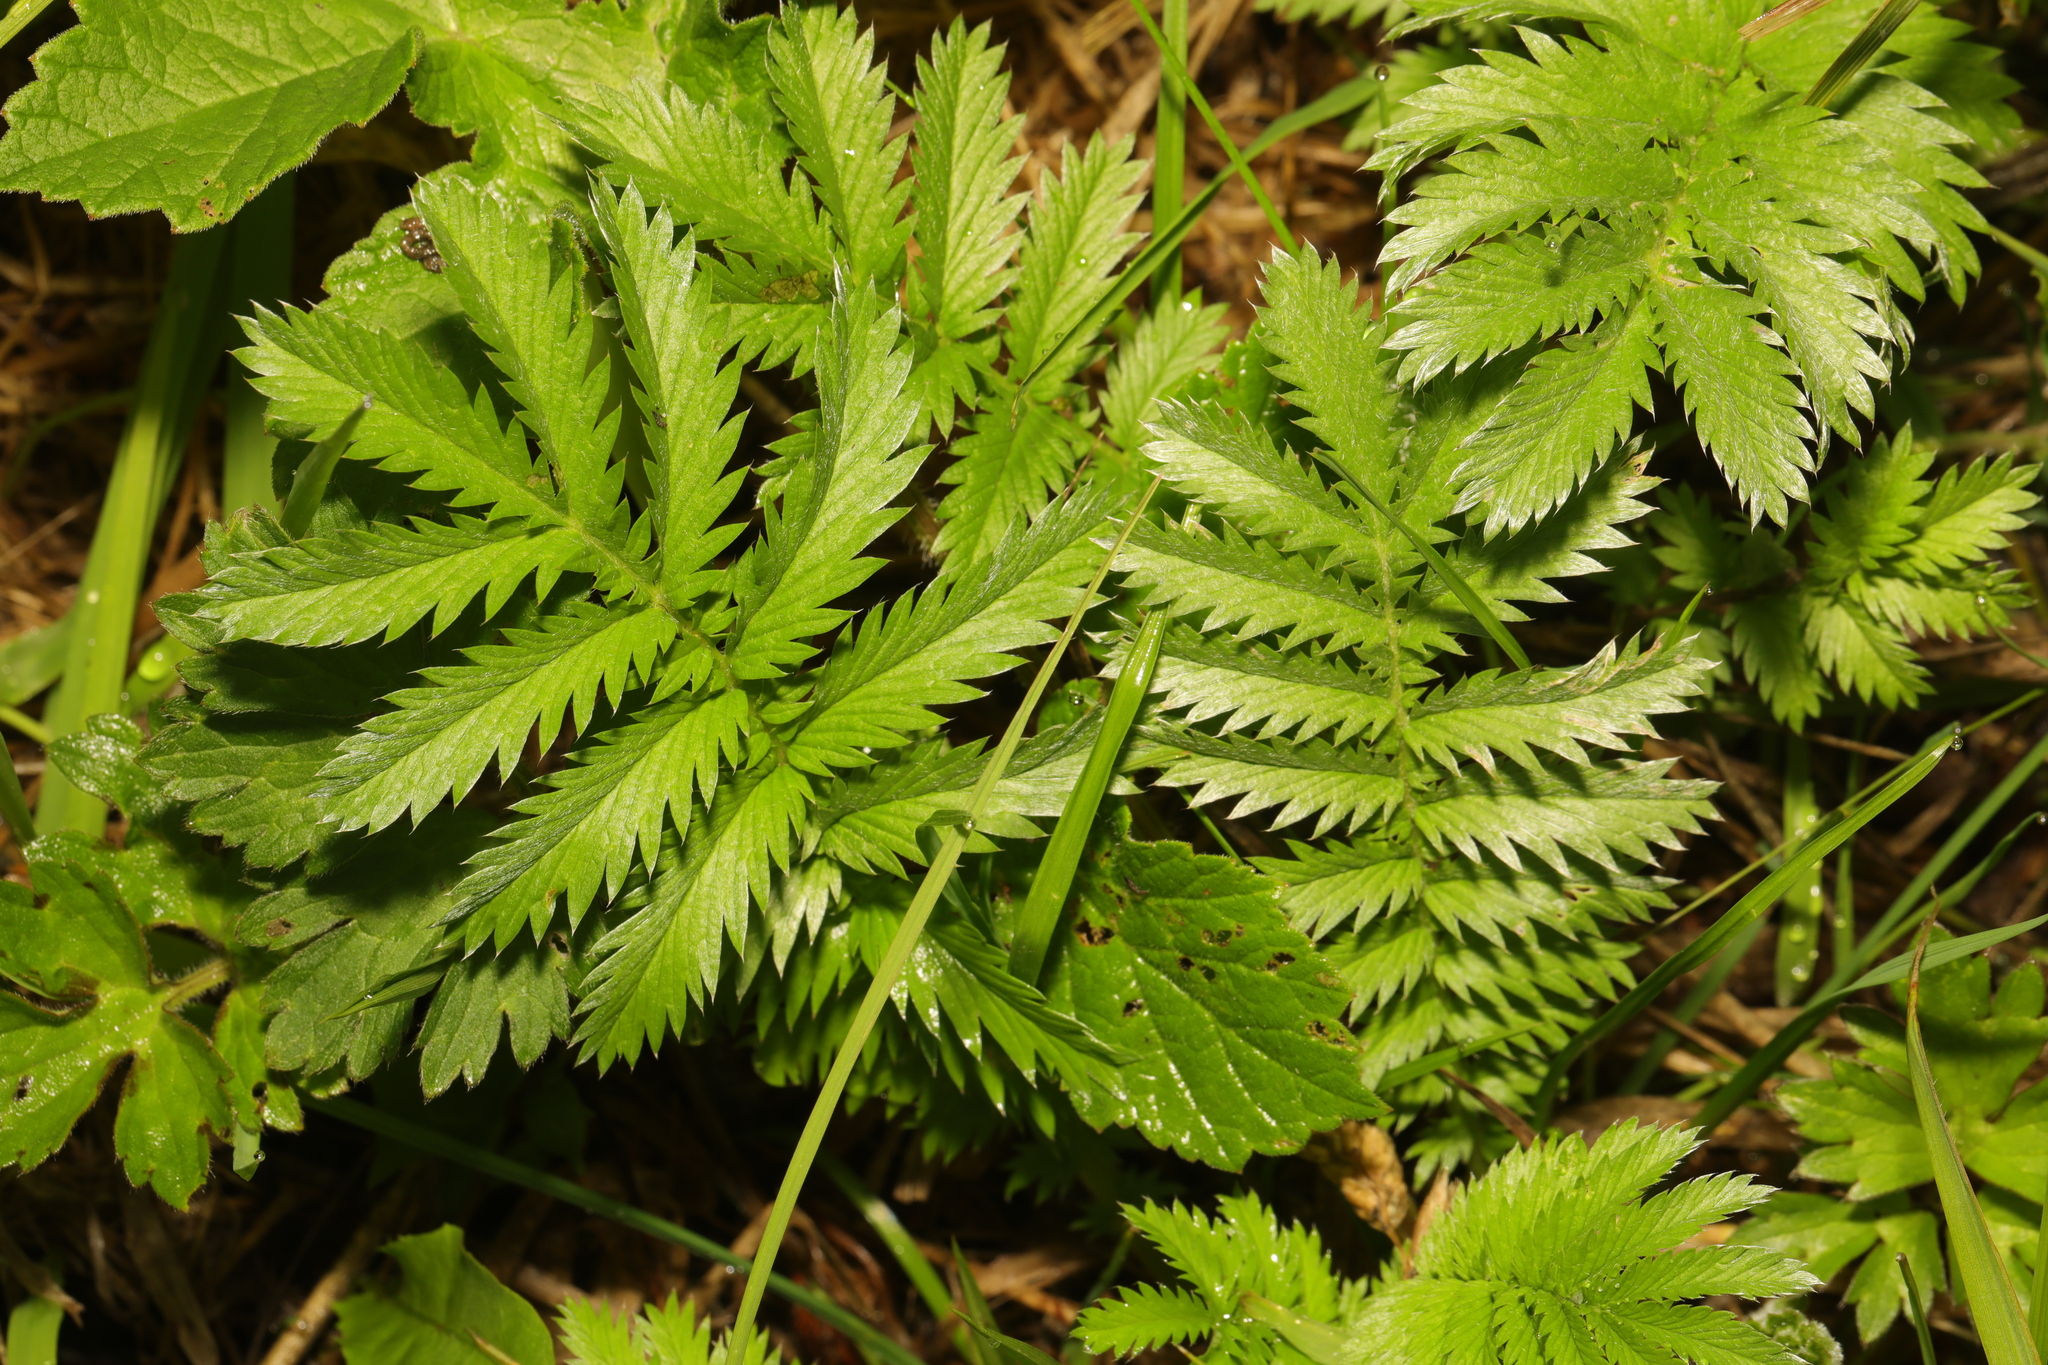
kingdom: Plantae
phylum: Tracheophyta
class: Magnoliopsida
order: Rosales
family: Rosaceae
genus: Argentina
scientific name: Argentina anserina
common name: Common silverweed
